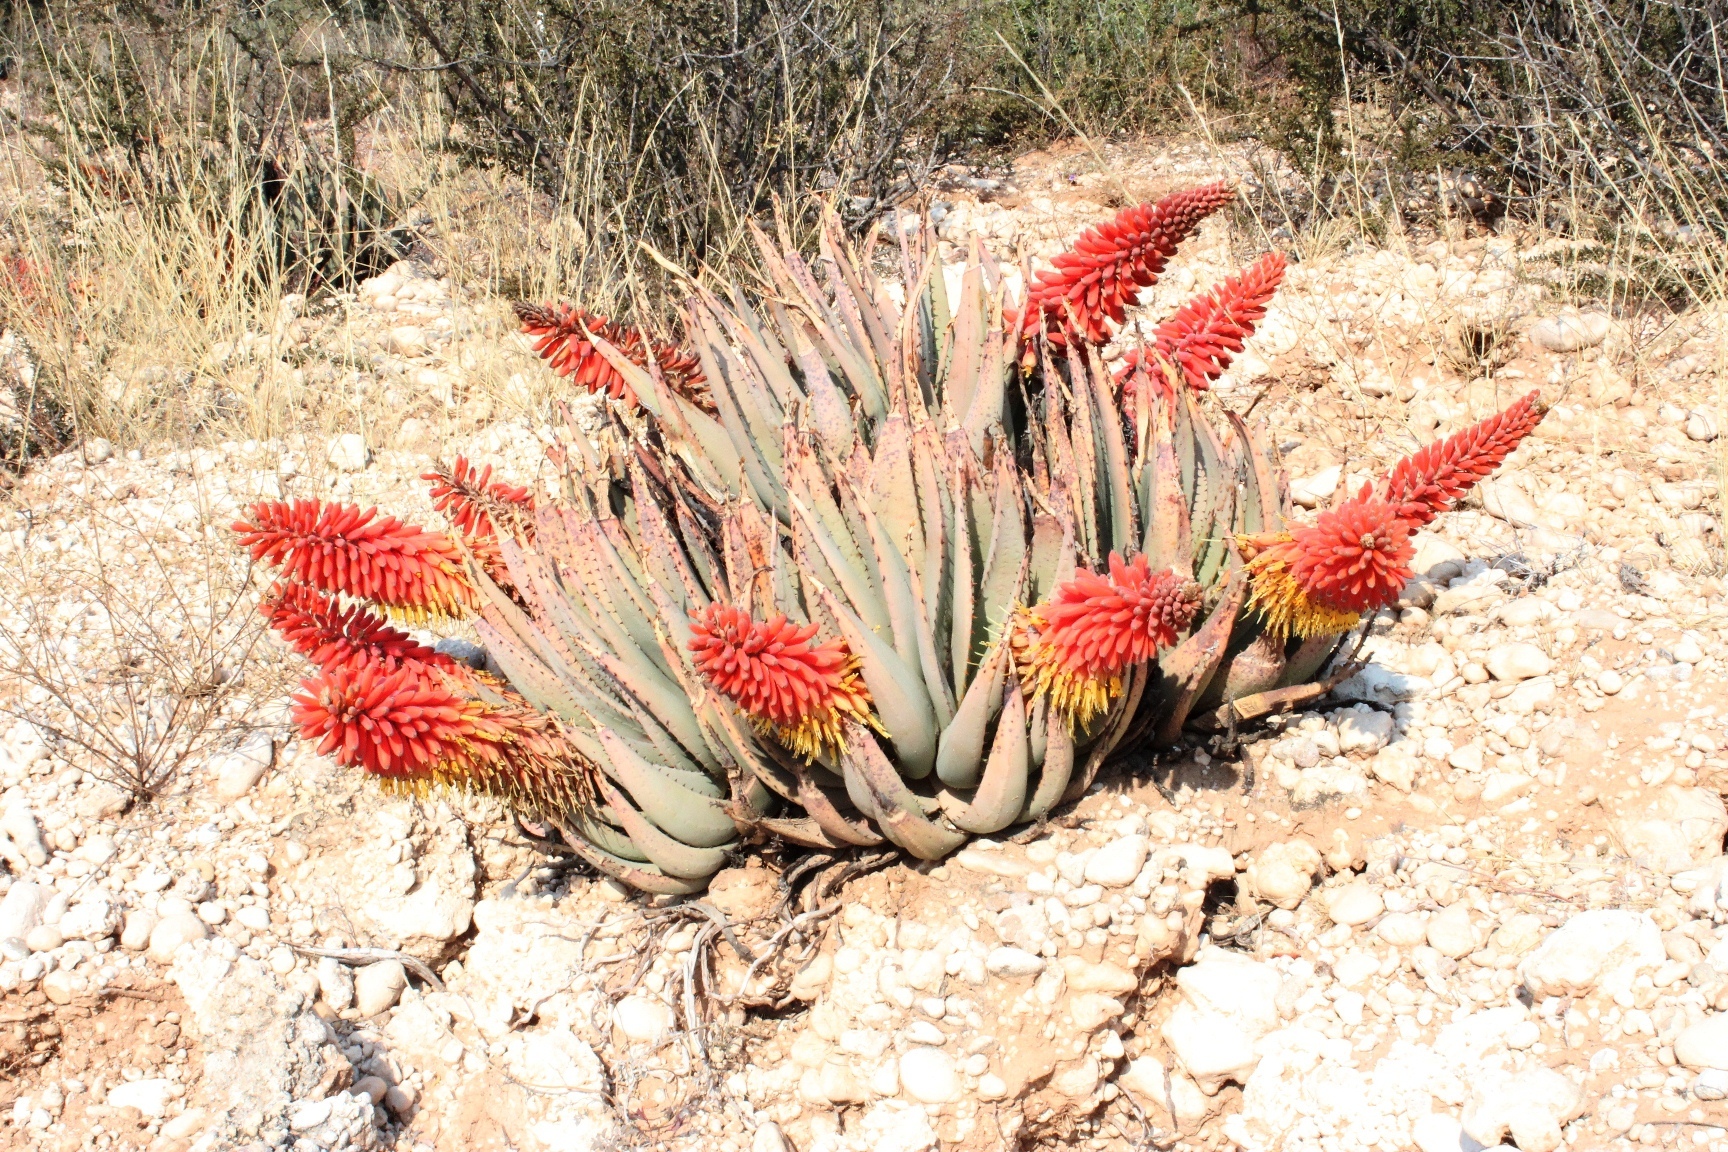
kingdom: Plantae
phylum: Tracheophyta
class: Liliopsida
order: Asparagales
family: Asphodelaceae
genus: Aloe
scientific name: Aloe claviflora
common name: Cannon aloe
